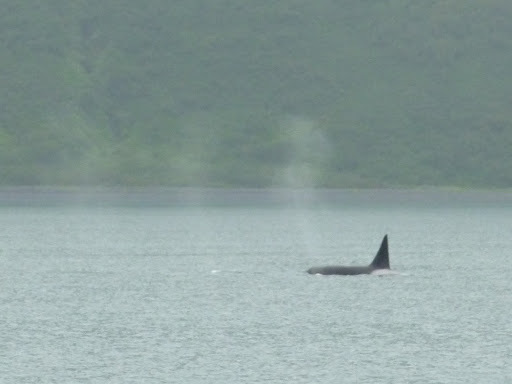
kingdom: Animalia
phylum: Chordata
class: Mammalia
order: Cetacea
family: Delphinidae
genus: Orcinus
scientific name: Orcinus orca
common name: Killer whale
